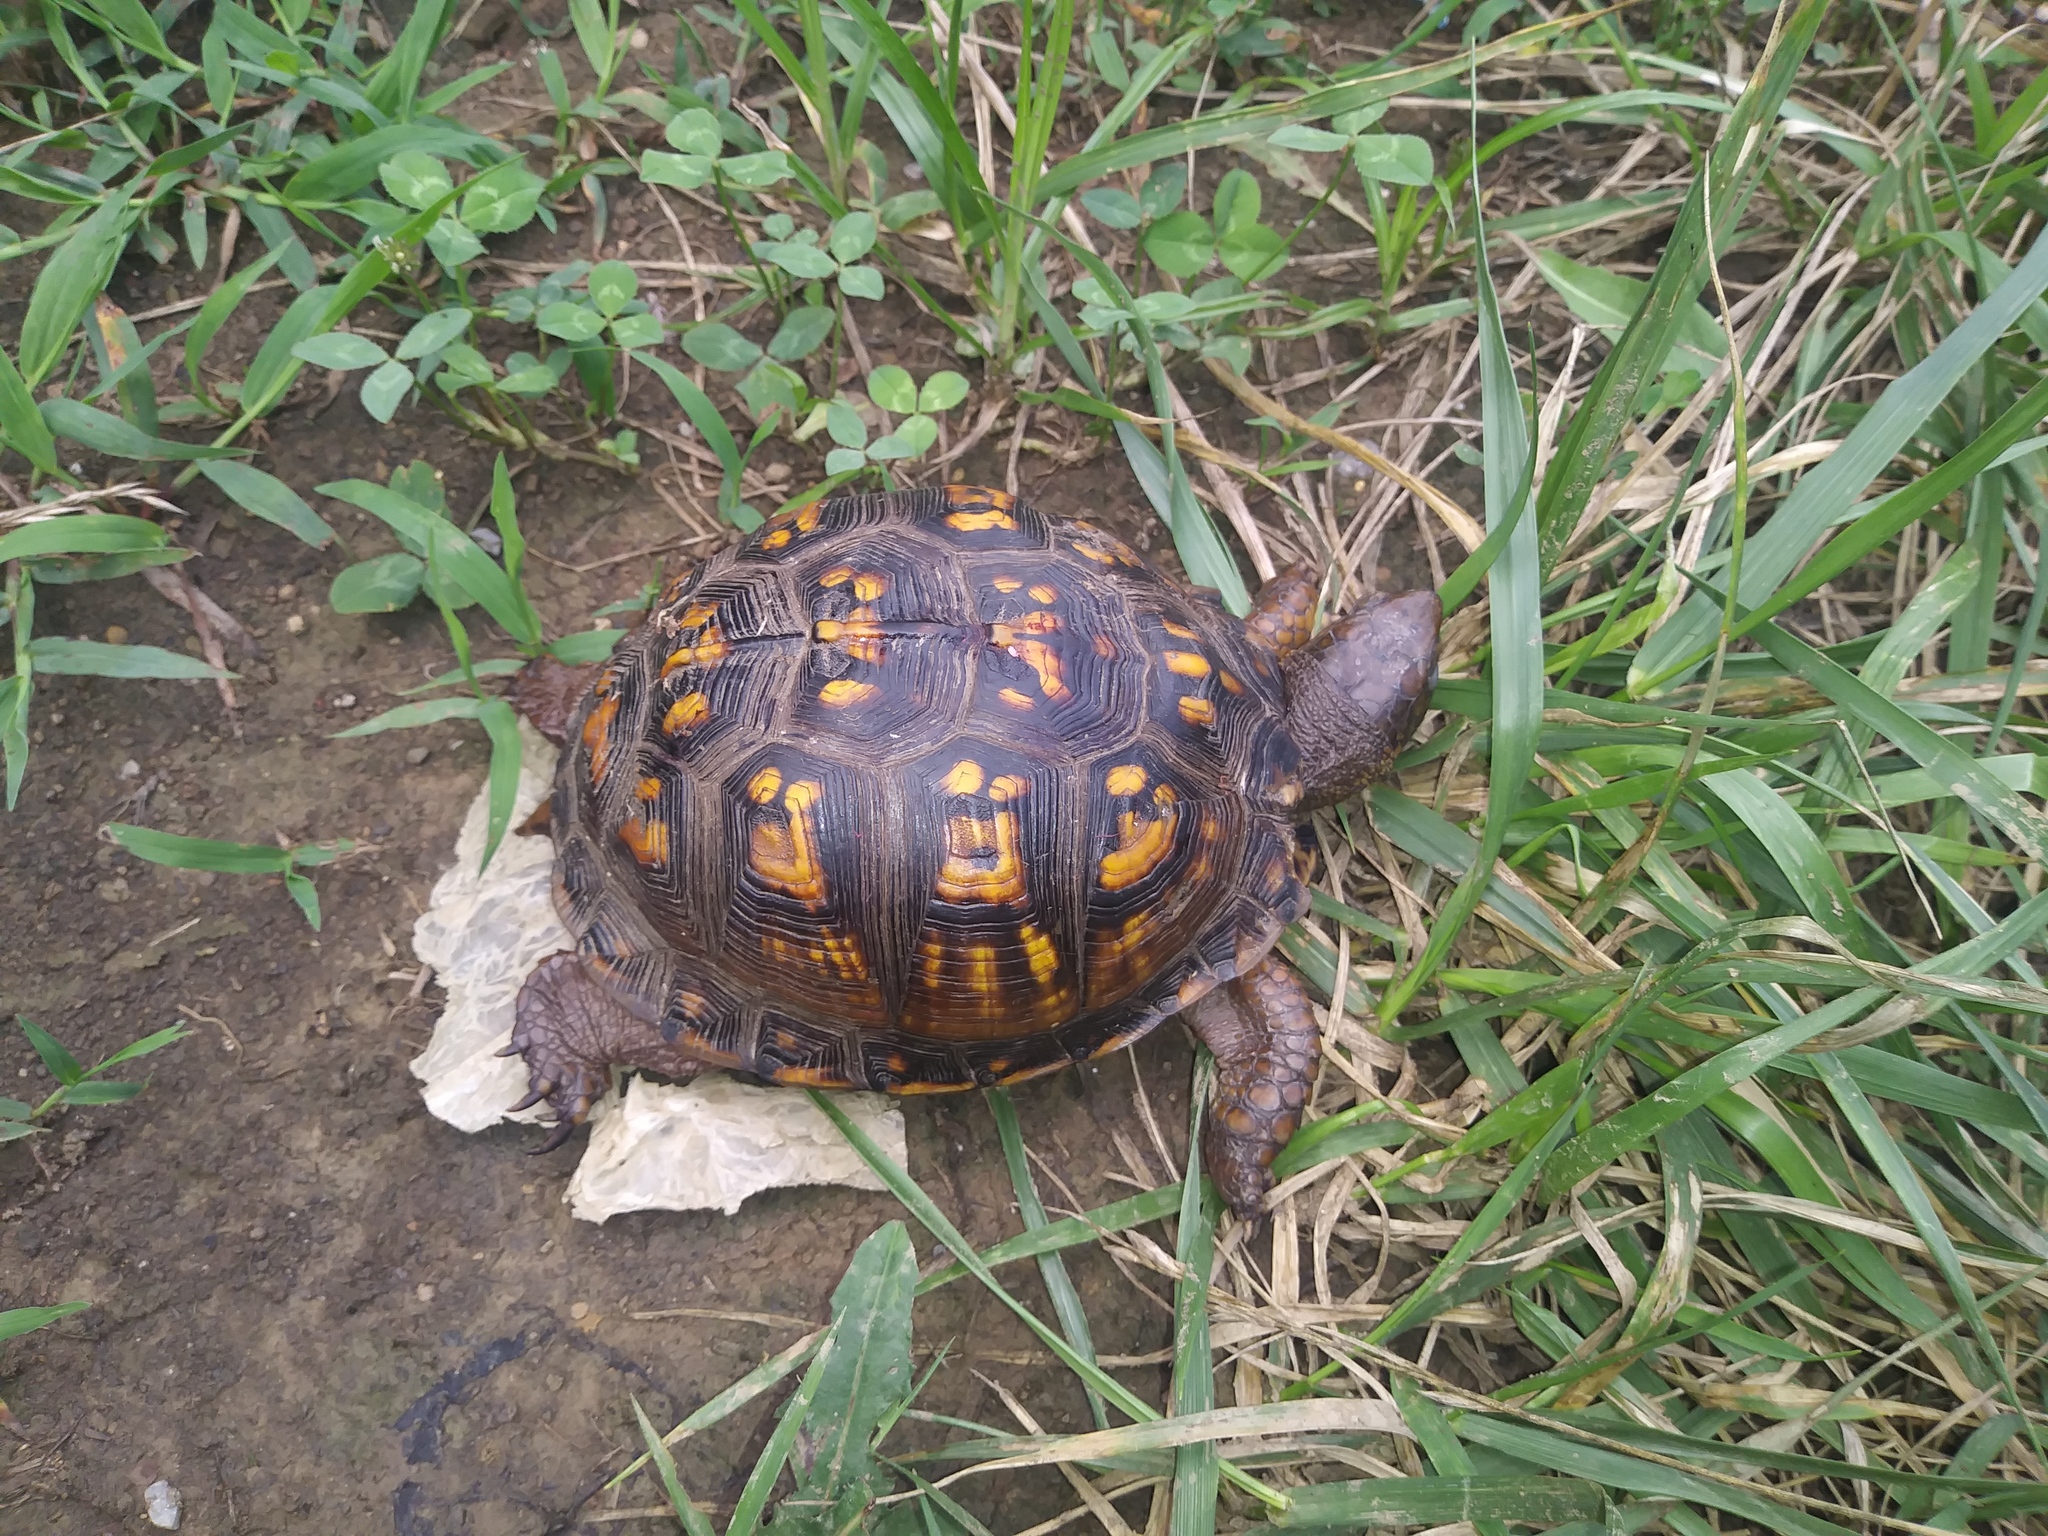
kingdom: Animalia
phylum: Chordata
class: Testudines
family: Emydidae
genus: Terrapene
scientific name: Terrapene carolina
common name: Common box turtle
